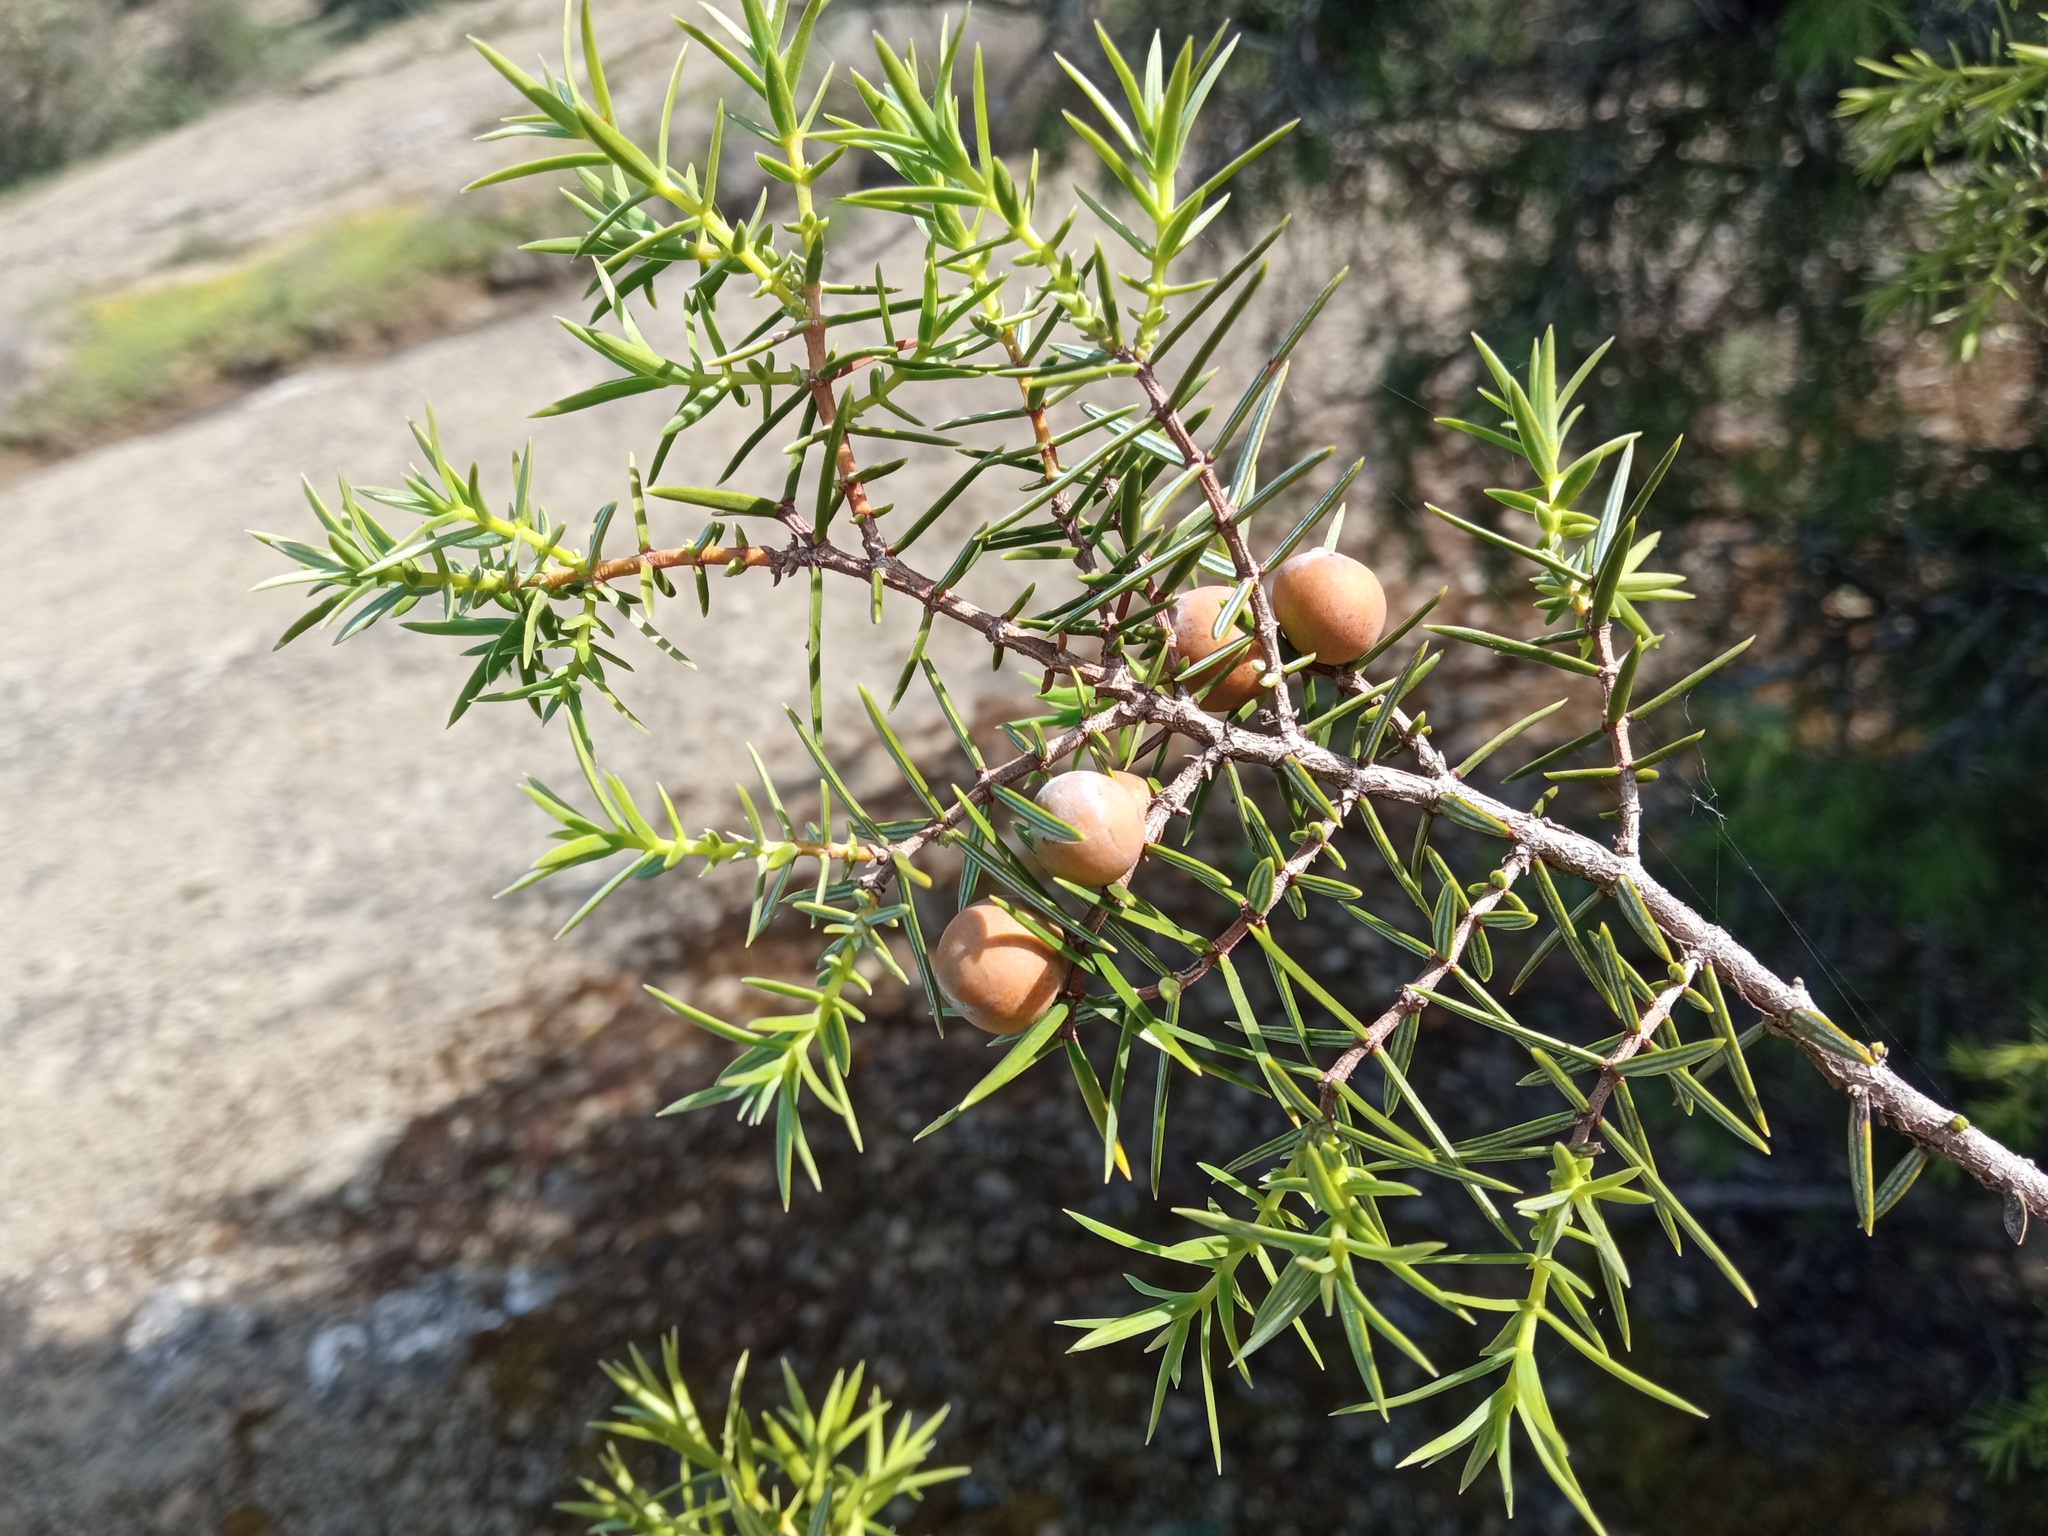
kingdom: Plantae
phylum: Tracheophyta
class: Pinopsida
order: Pinales
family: Cupressaceae
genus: Juniperus
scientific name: Juniperus oxycedrus
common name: Prickly juniper
